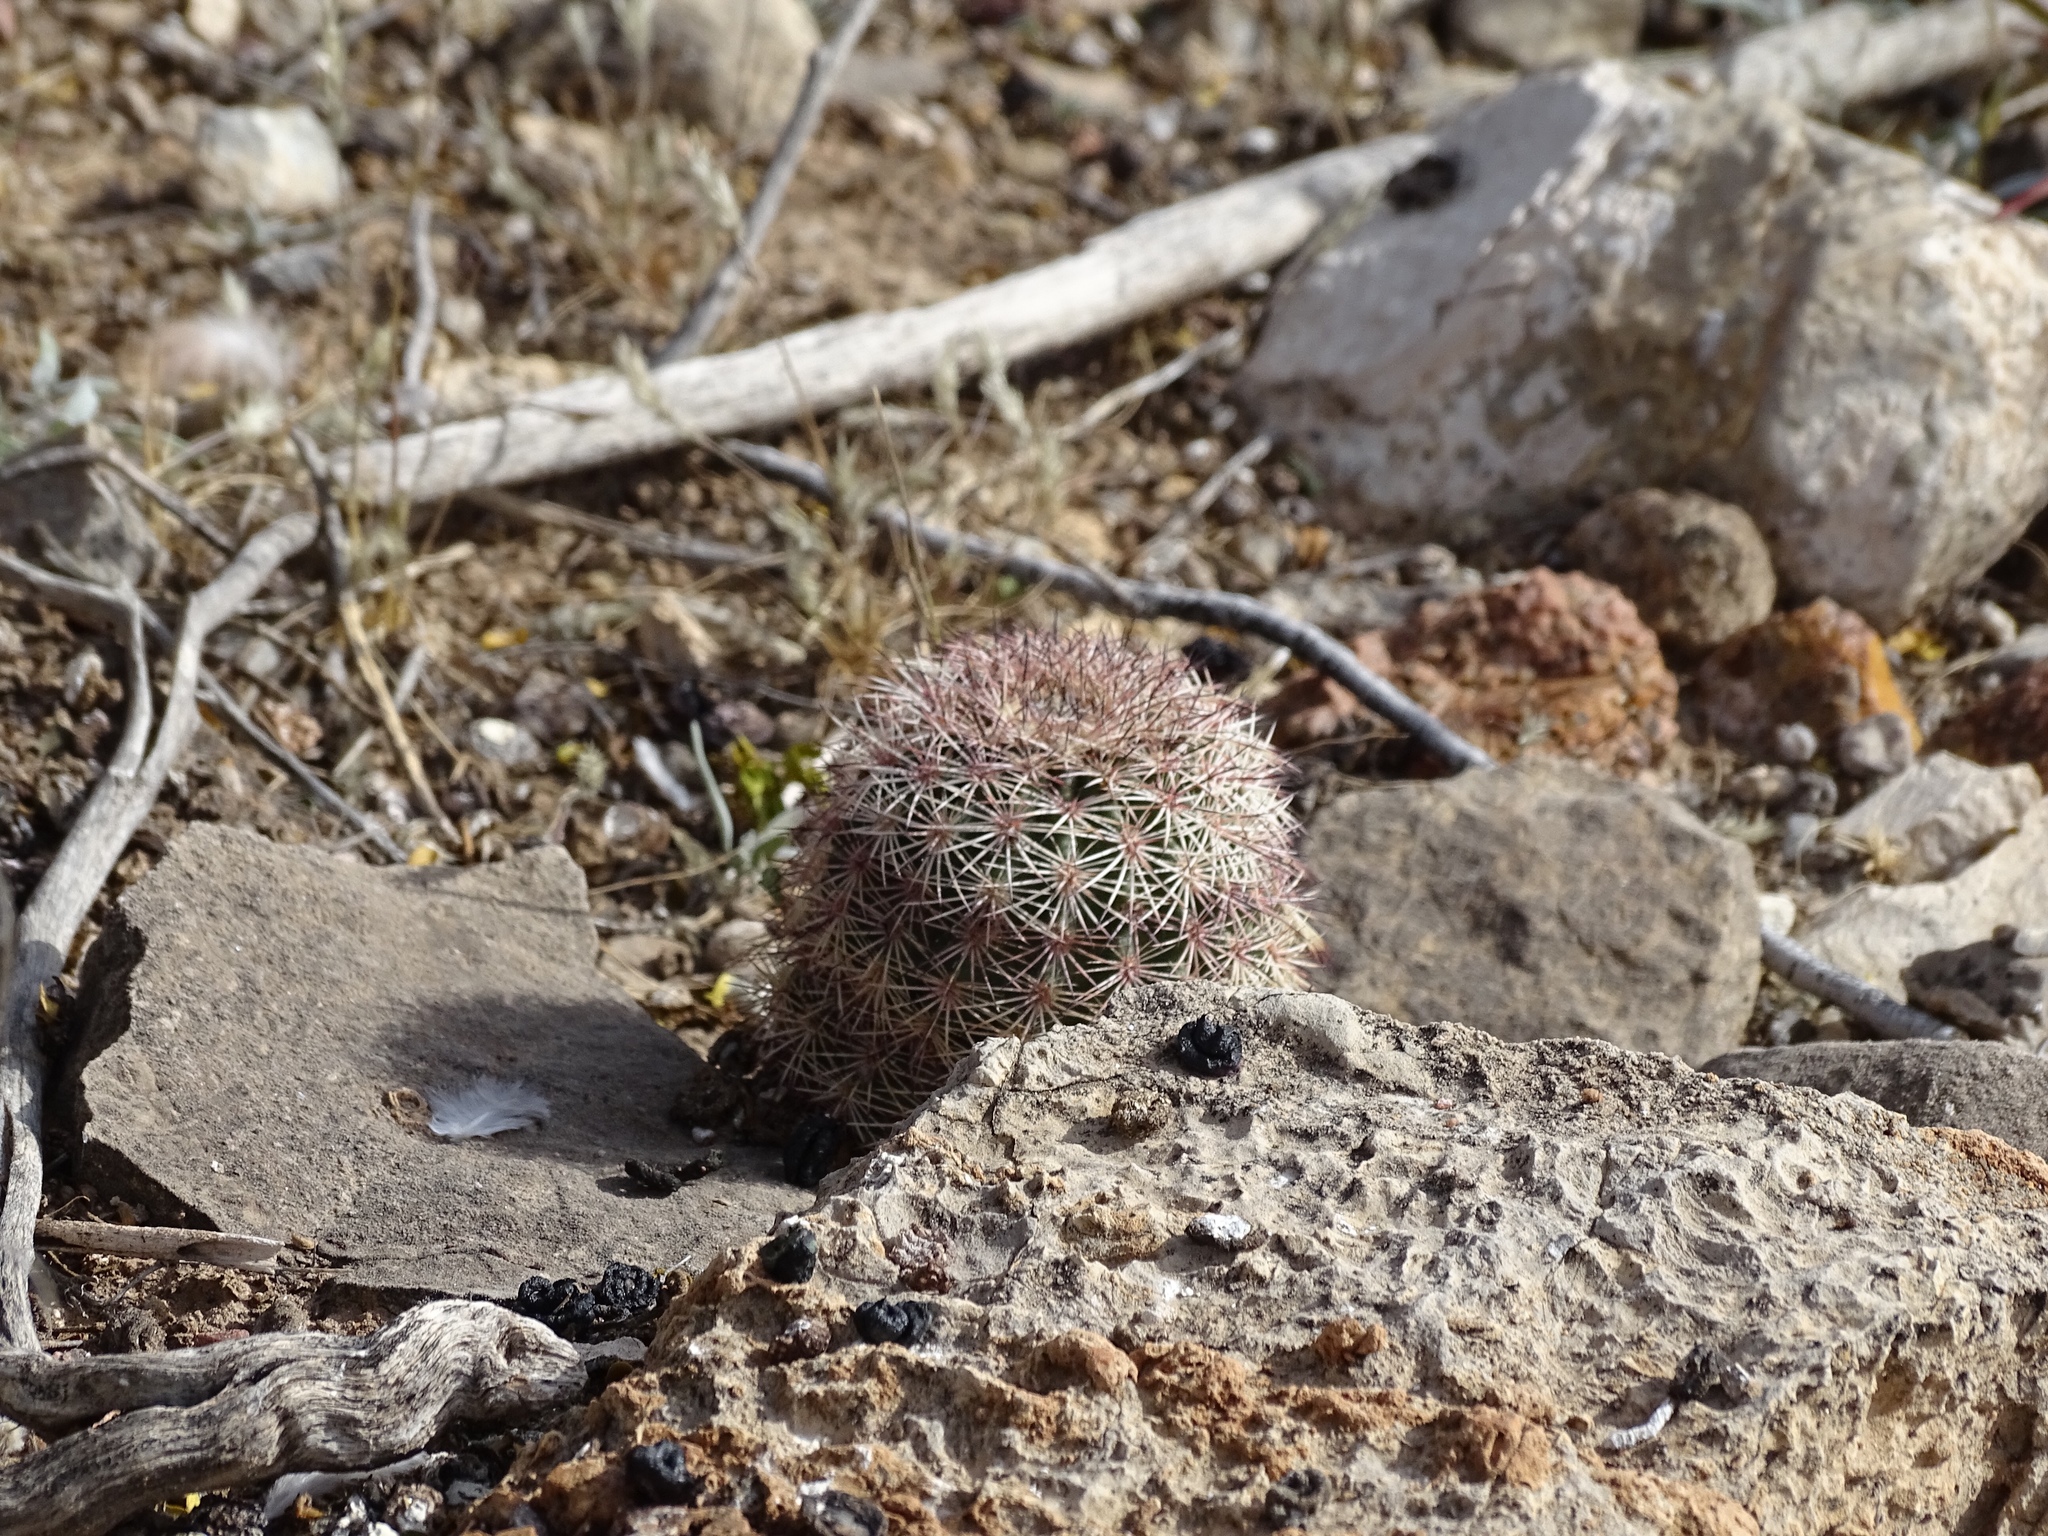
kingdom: Plantae
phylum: Tracheophyta
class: Magnoliopsida
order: Caryophyllales
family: Cactaceae
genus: Echinocereus
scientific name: Echinocereus dasyacanthus
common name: Spiny hedgehog cactus
